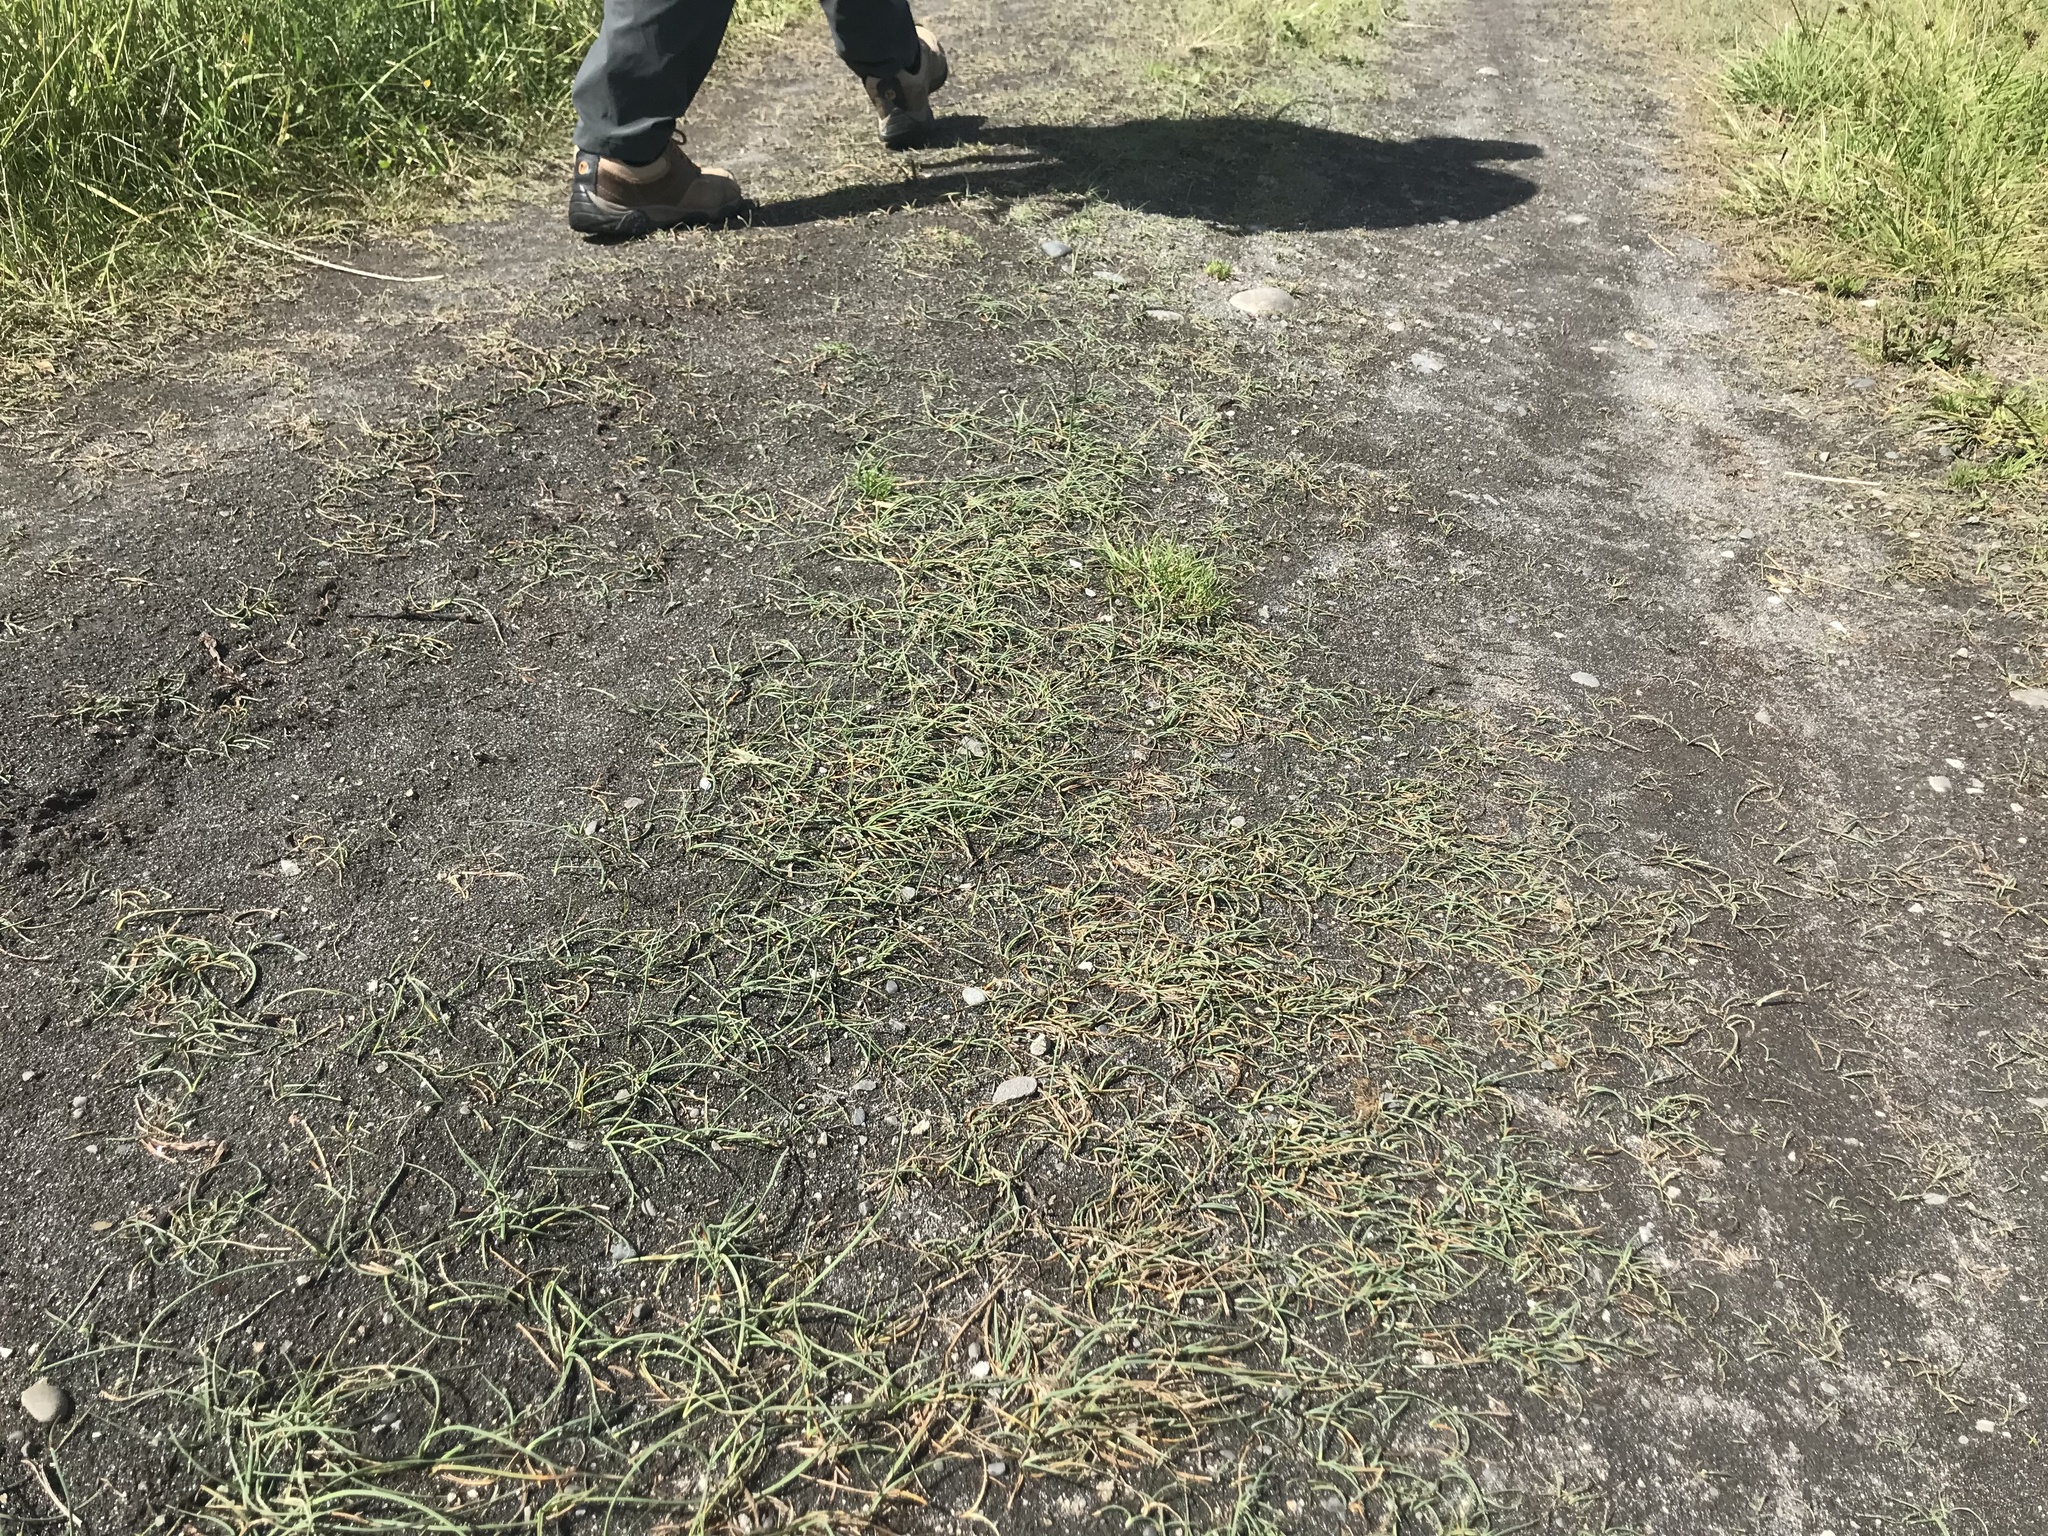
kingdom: Plantae
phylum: Tracheophyta
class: Liliopsida
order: Poales
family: Cyperaceae
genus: Schoenoplectus
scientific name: Schoenoplectus pungens
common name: Sharp club-rush
